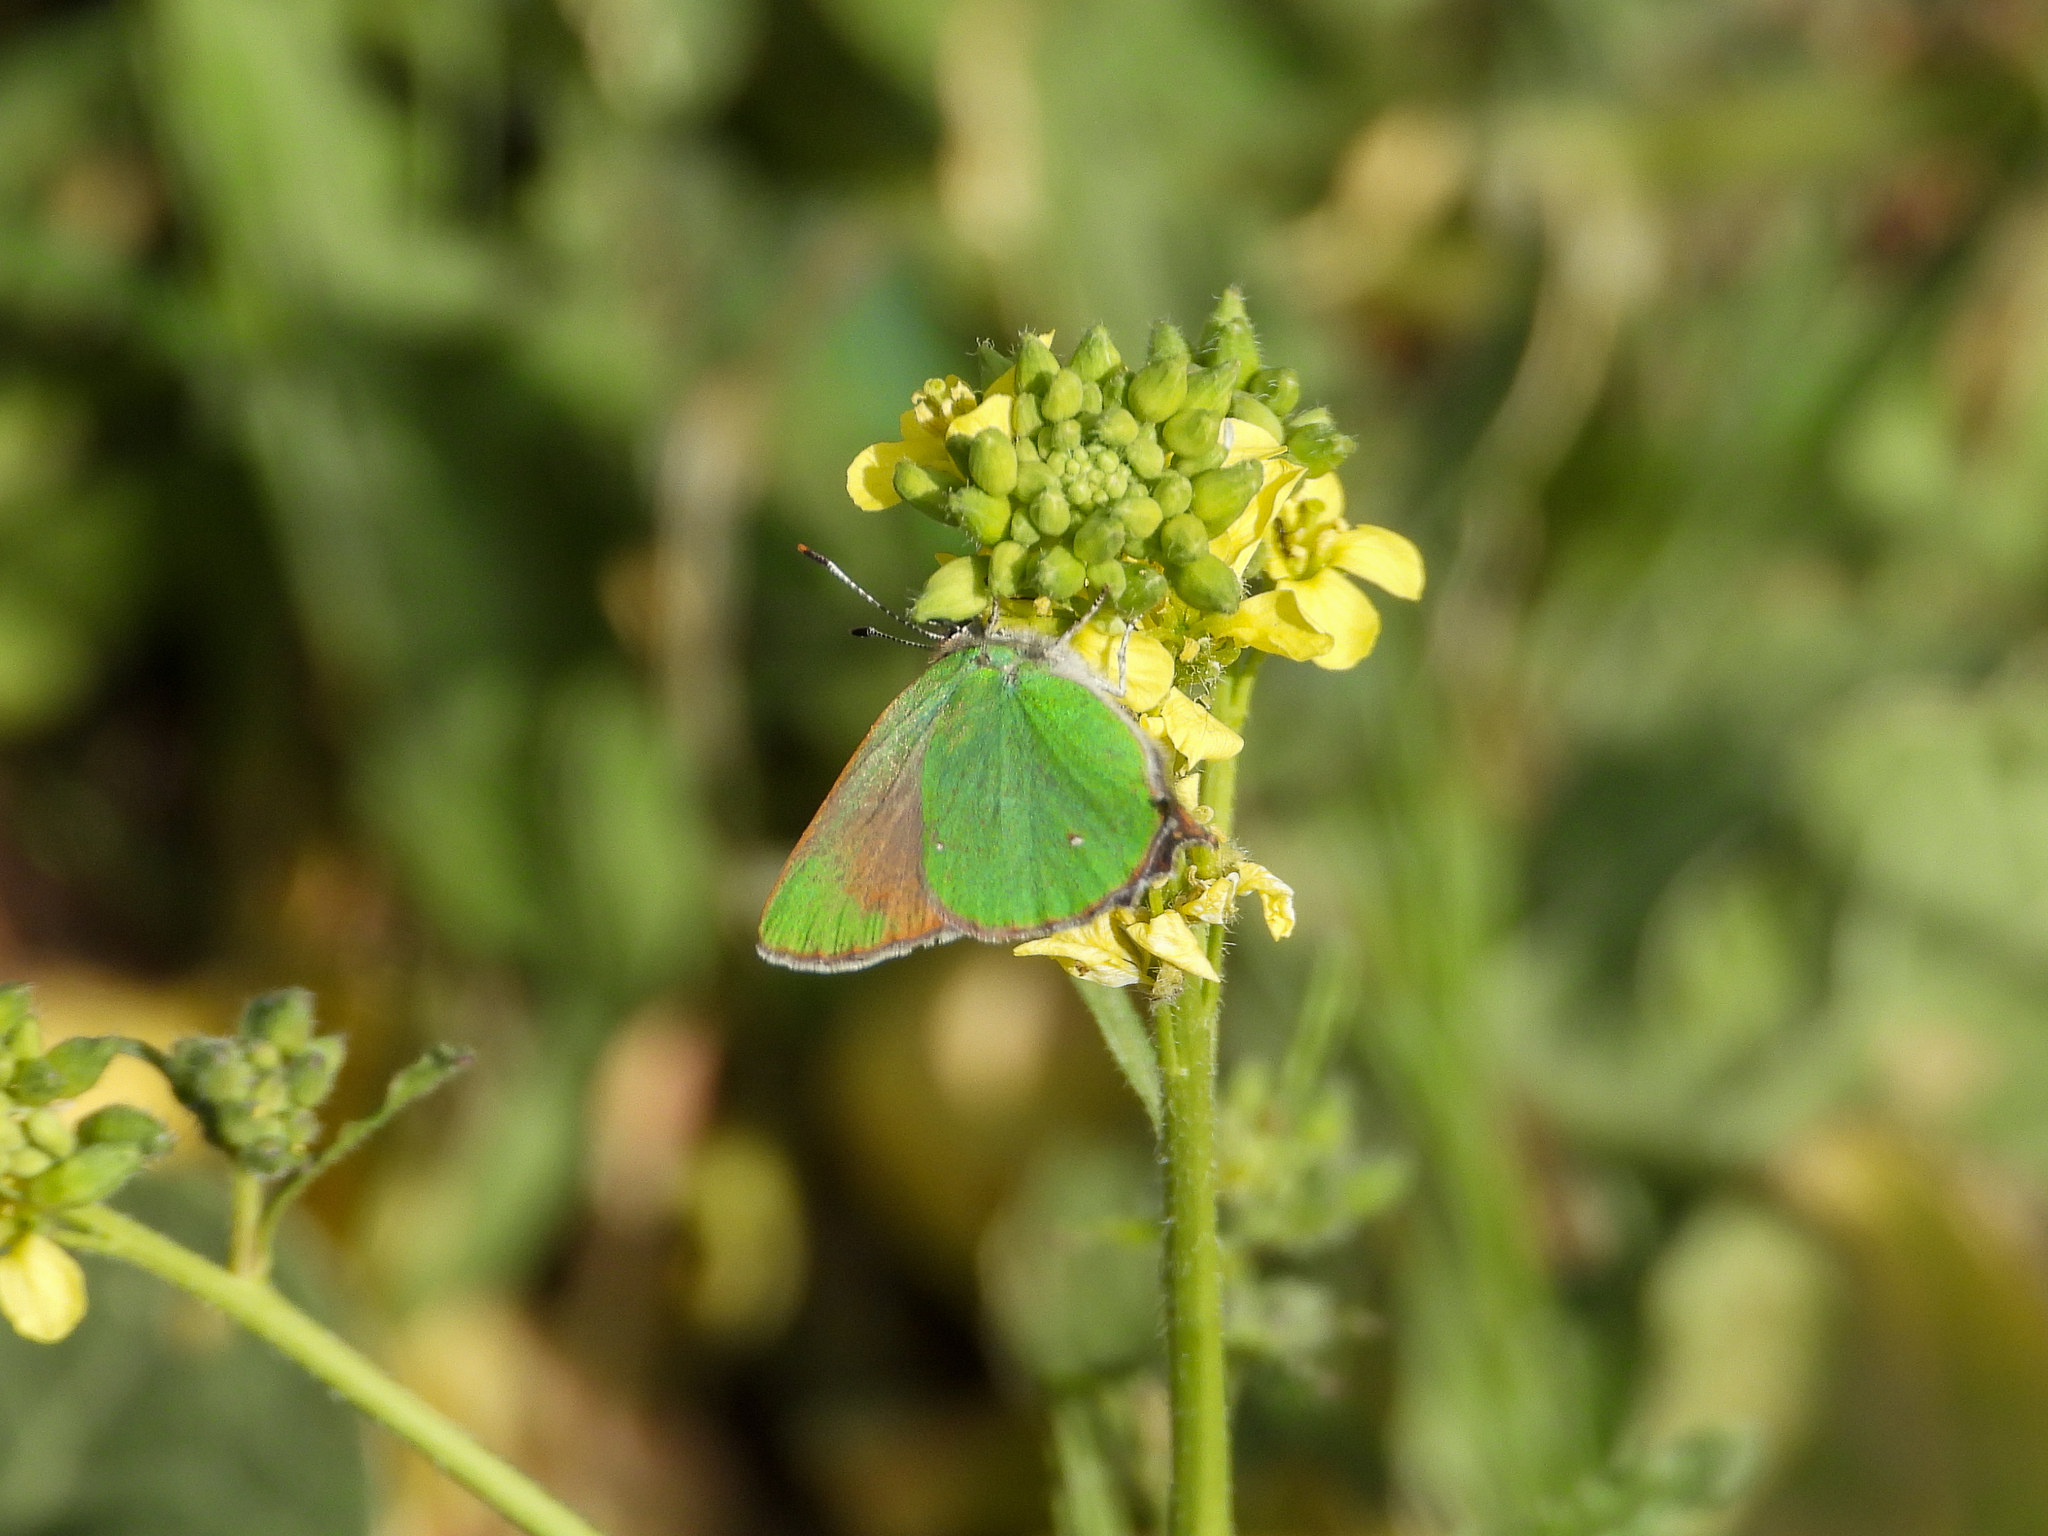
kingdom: Animalia
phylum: Arthropoda
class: Insecta
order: Lepidoptera
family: Lycaenidae
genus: Callophrys
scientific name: Callophrys dumetorum
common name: Bramble hairstreak
